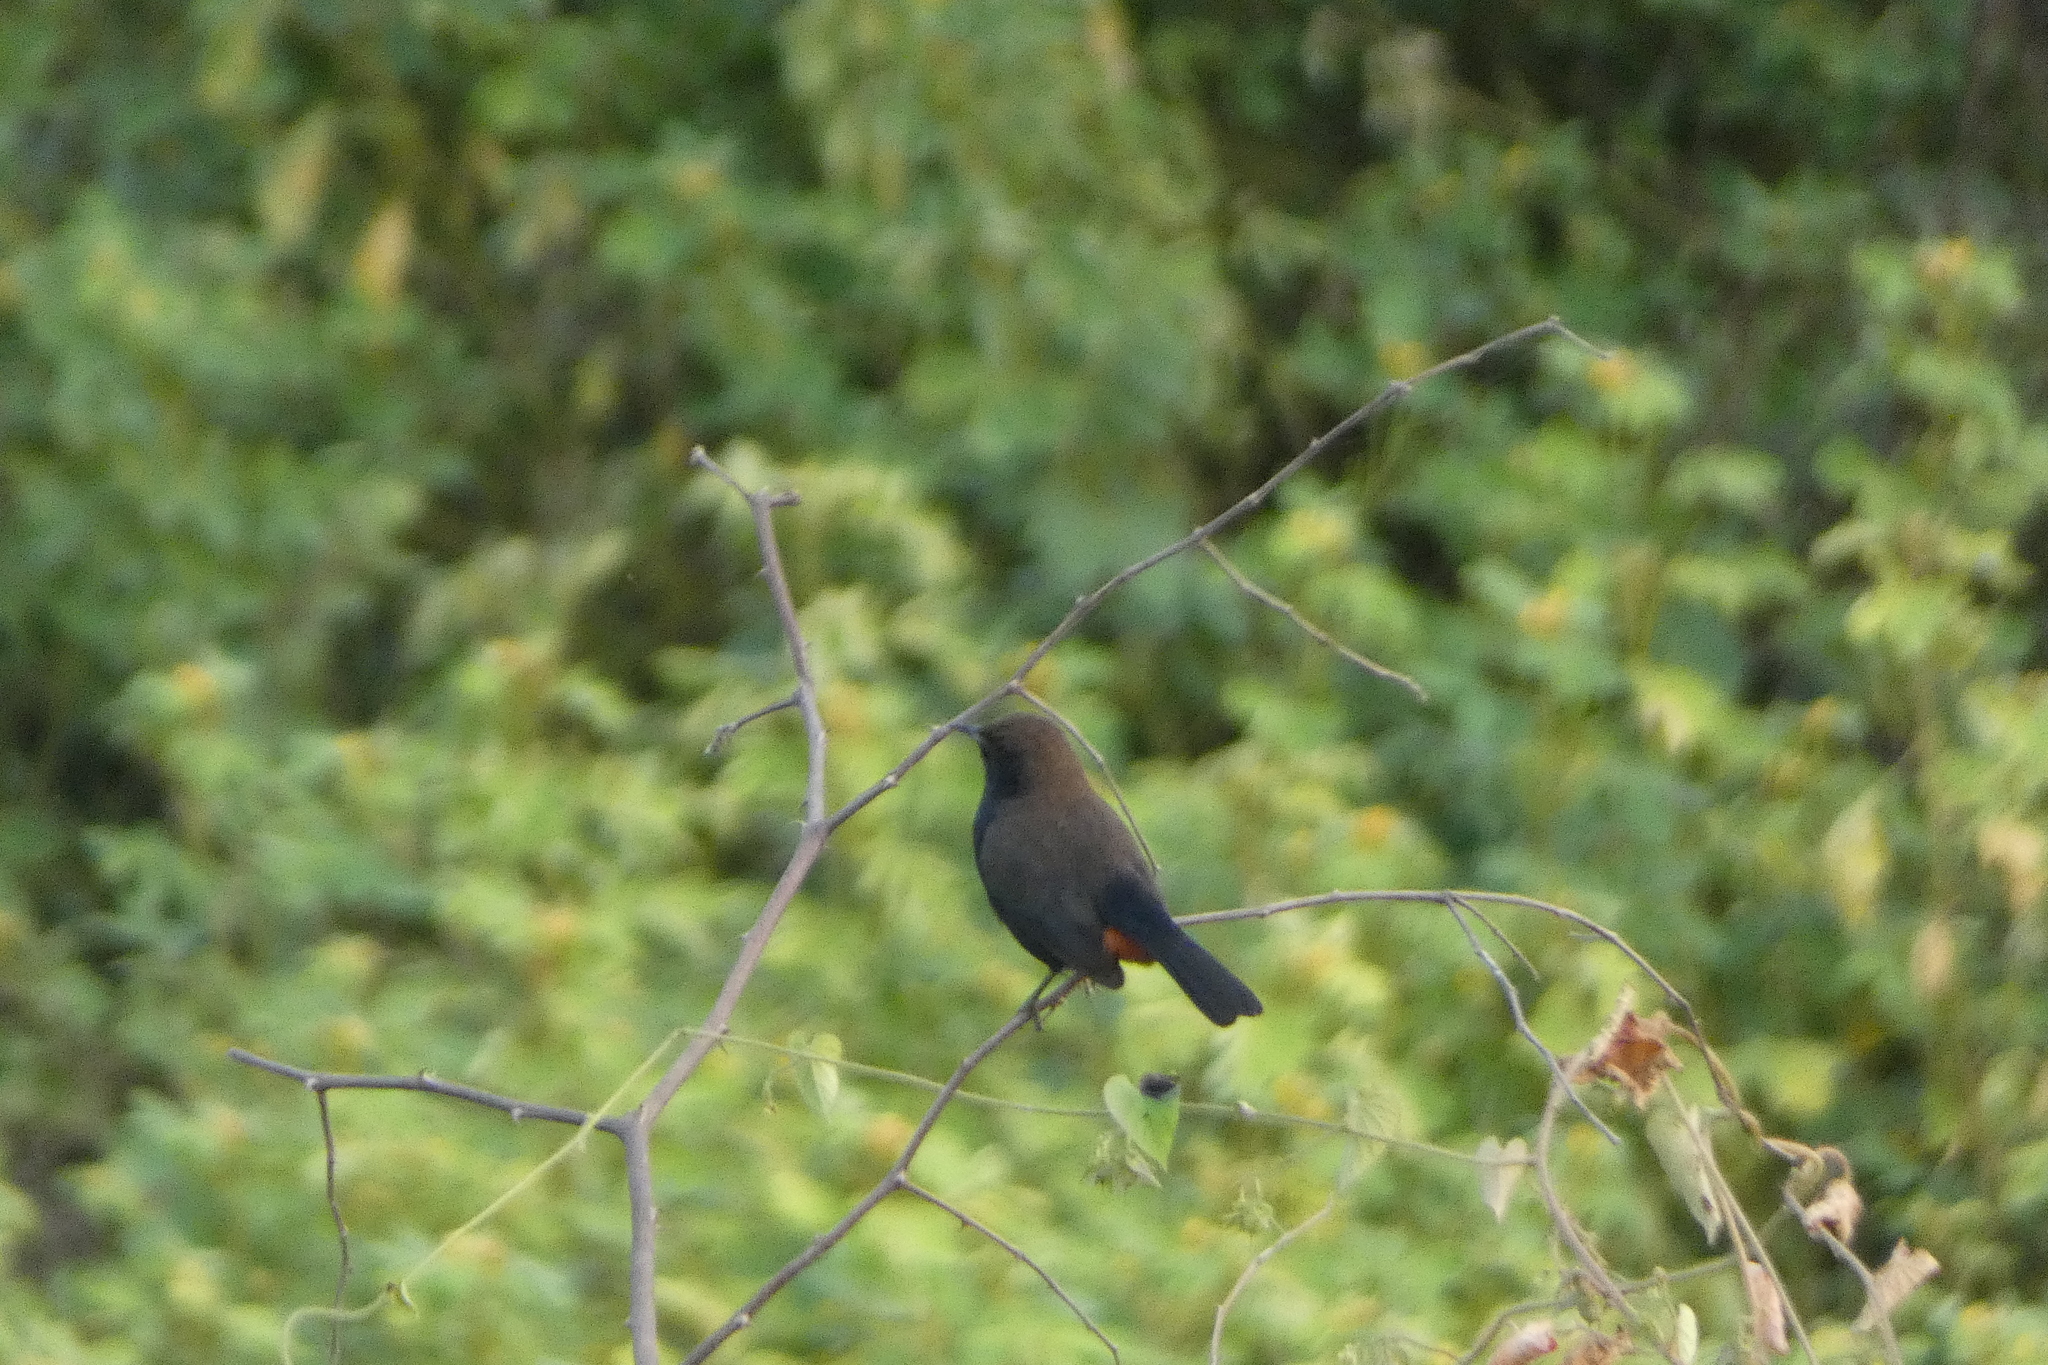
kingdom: Animalia
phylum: Chordata
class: Aves
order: Passeriformes
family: Muscicapidae
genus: Saxicoloides
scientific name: Saxicoloides fulicatus
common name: Indian robin
